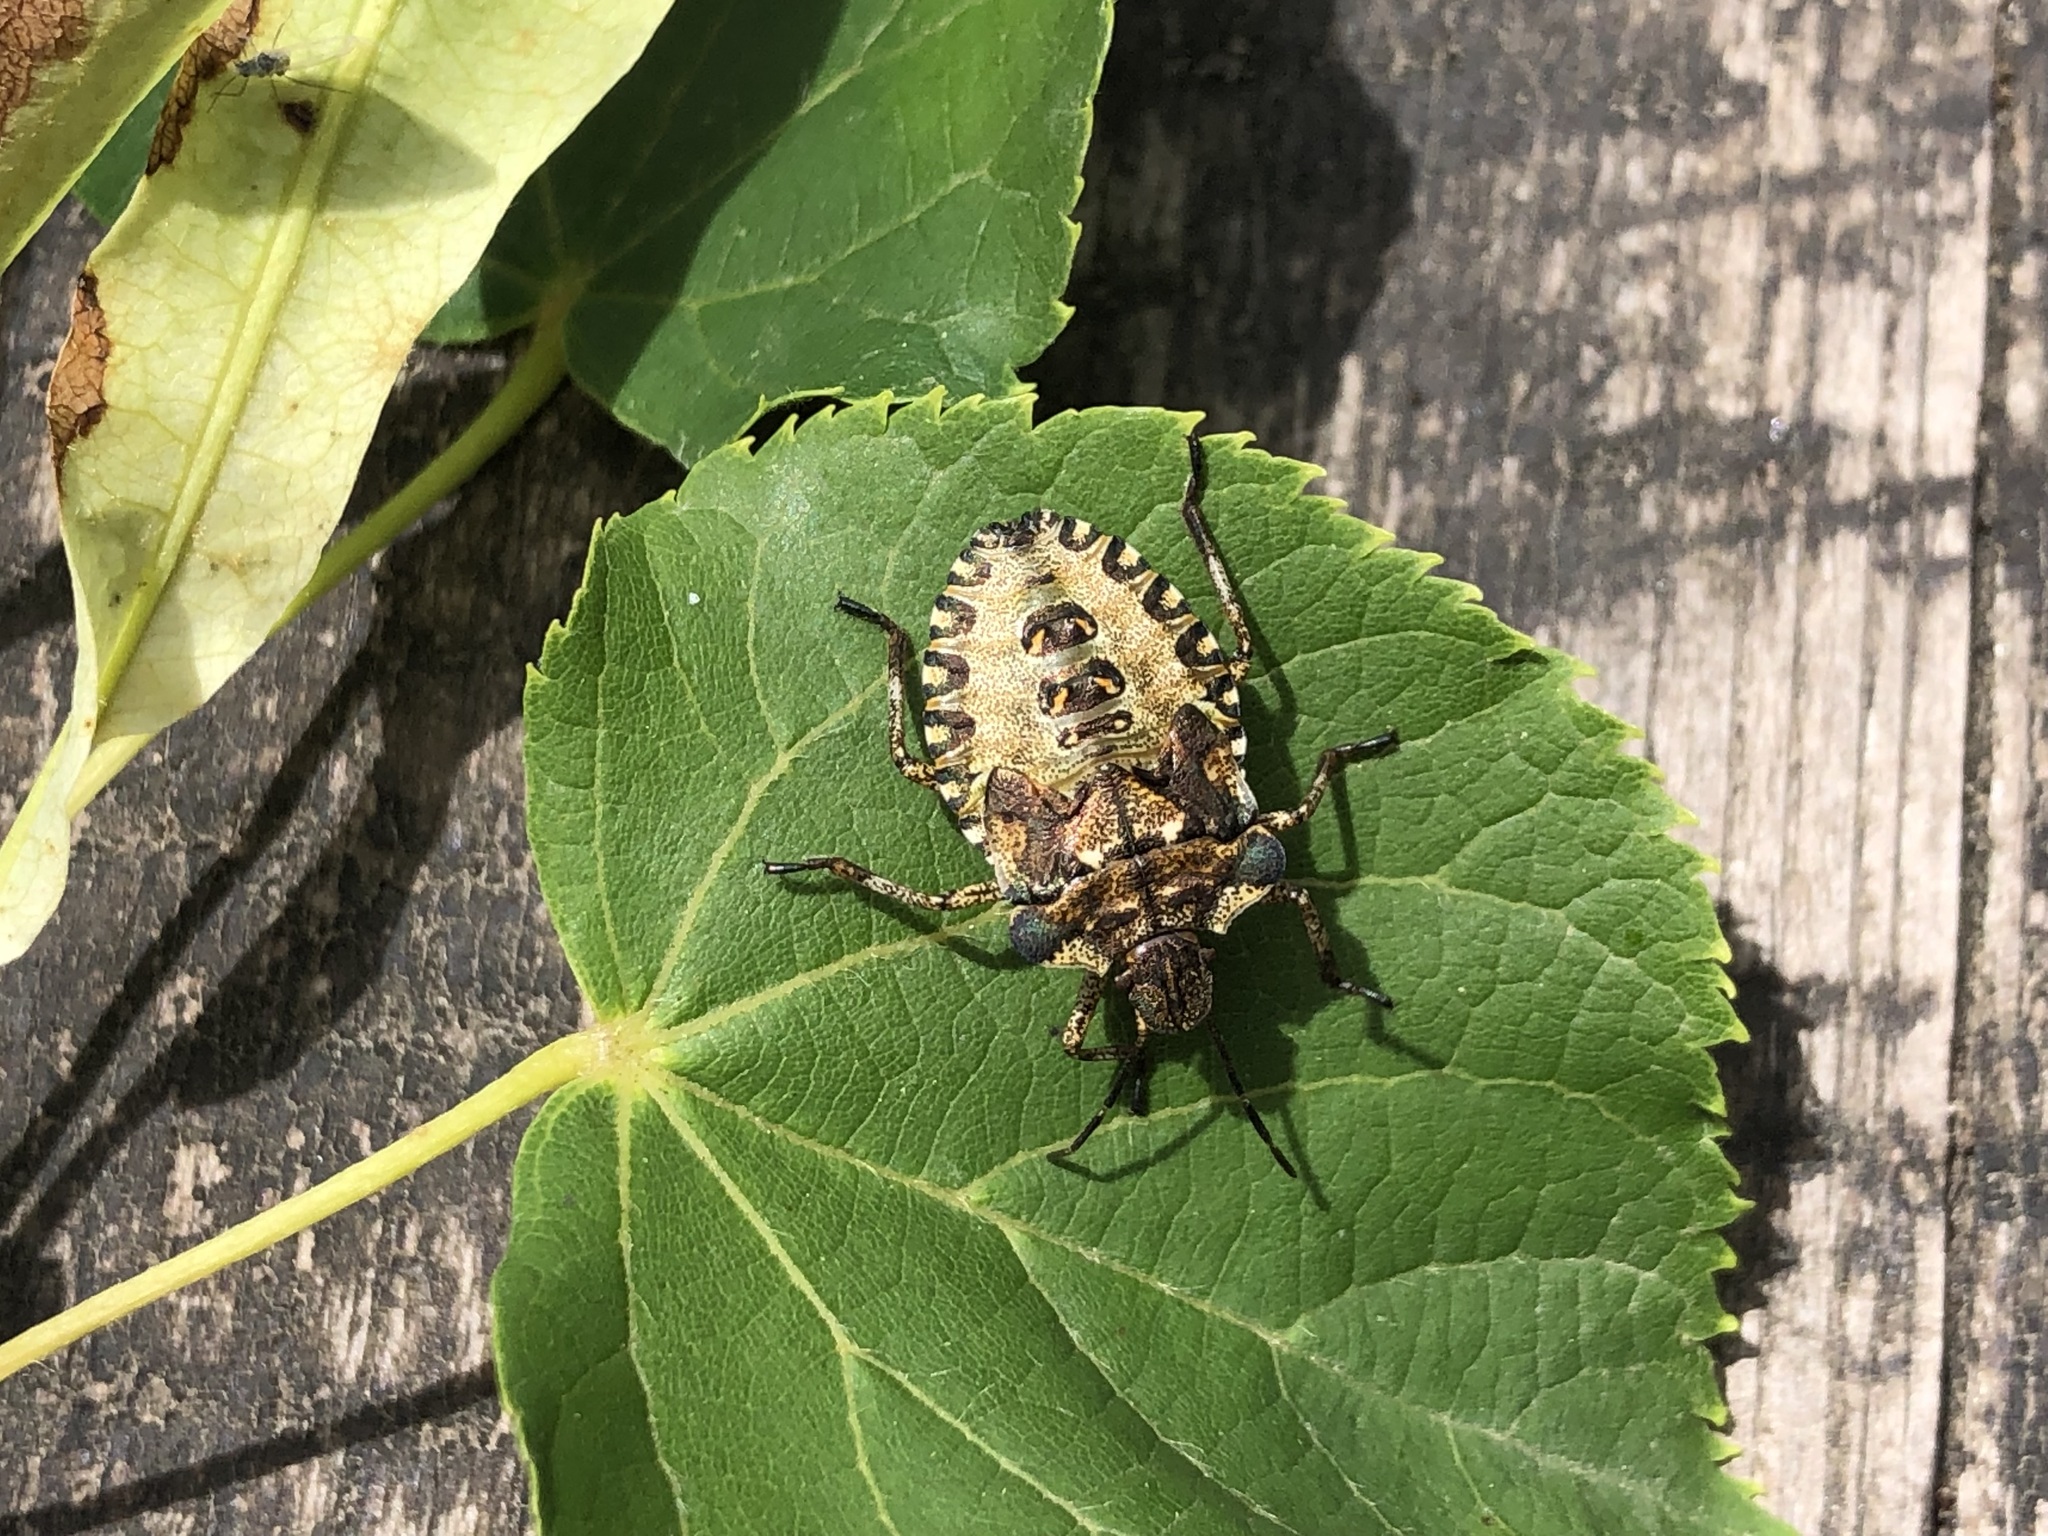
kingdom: Animalia
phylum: Arthropoda
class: Insecta
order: Hemiptera
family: Pentatomidae
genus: Pentatoma
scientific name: Pentatoma rufipes
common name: Forest bug
